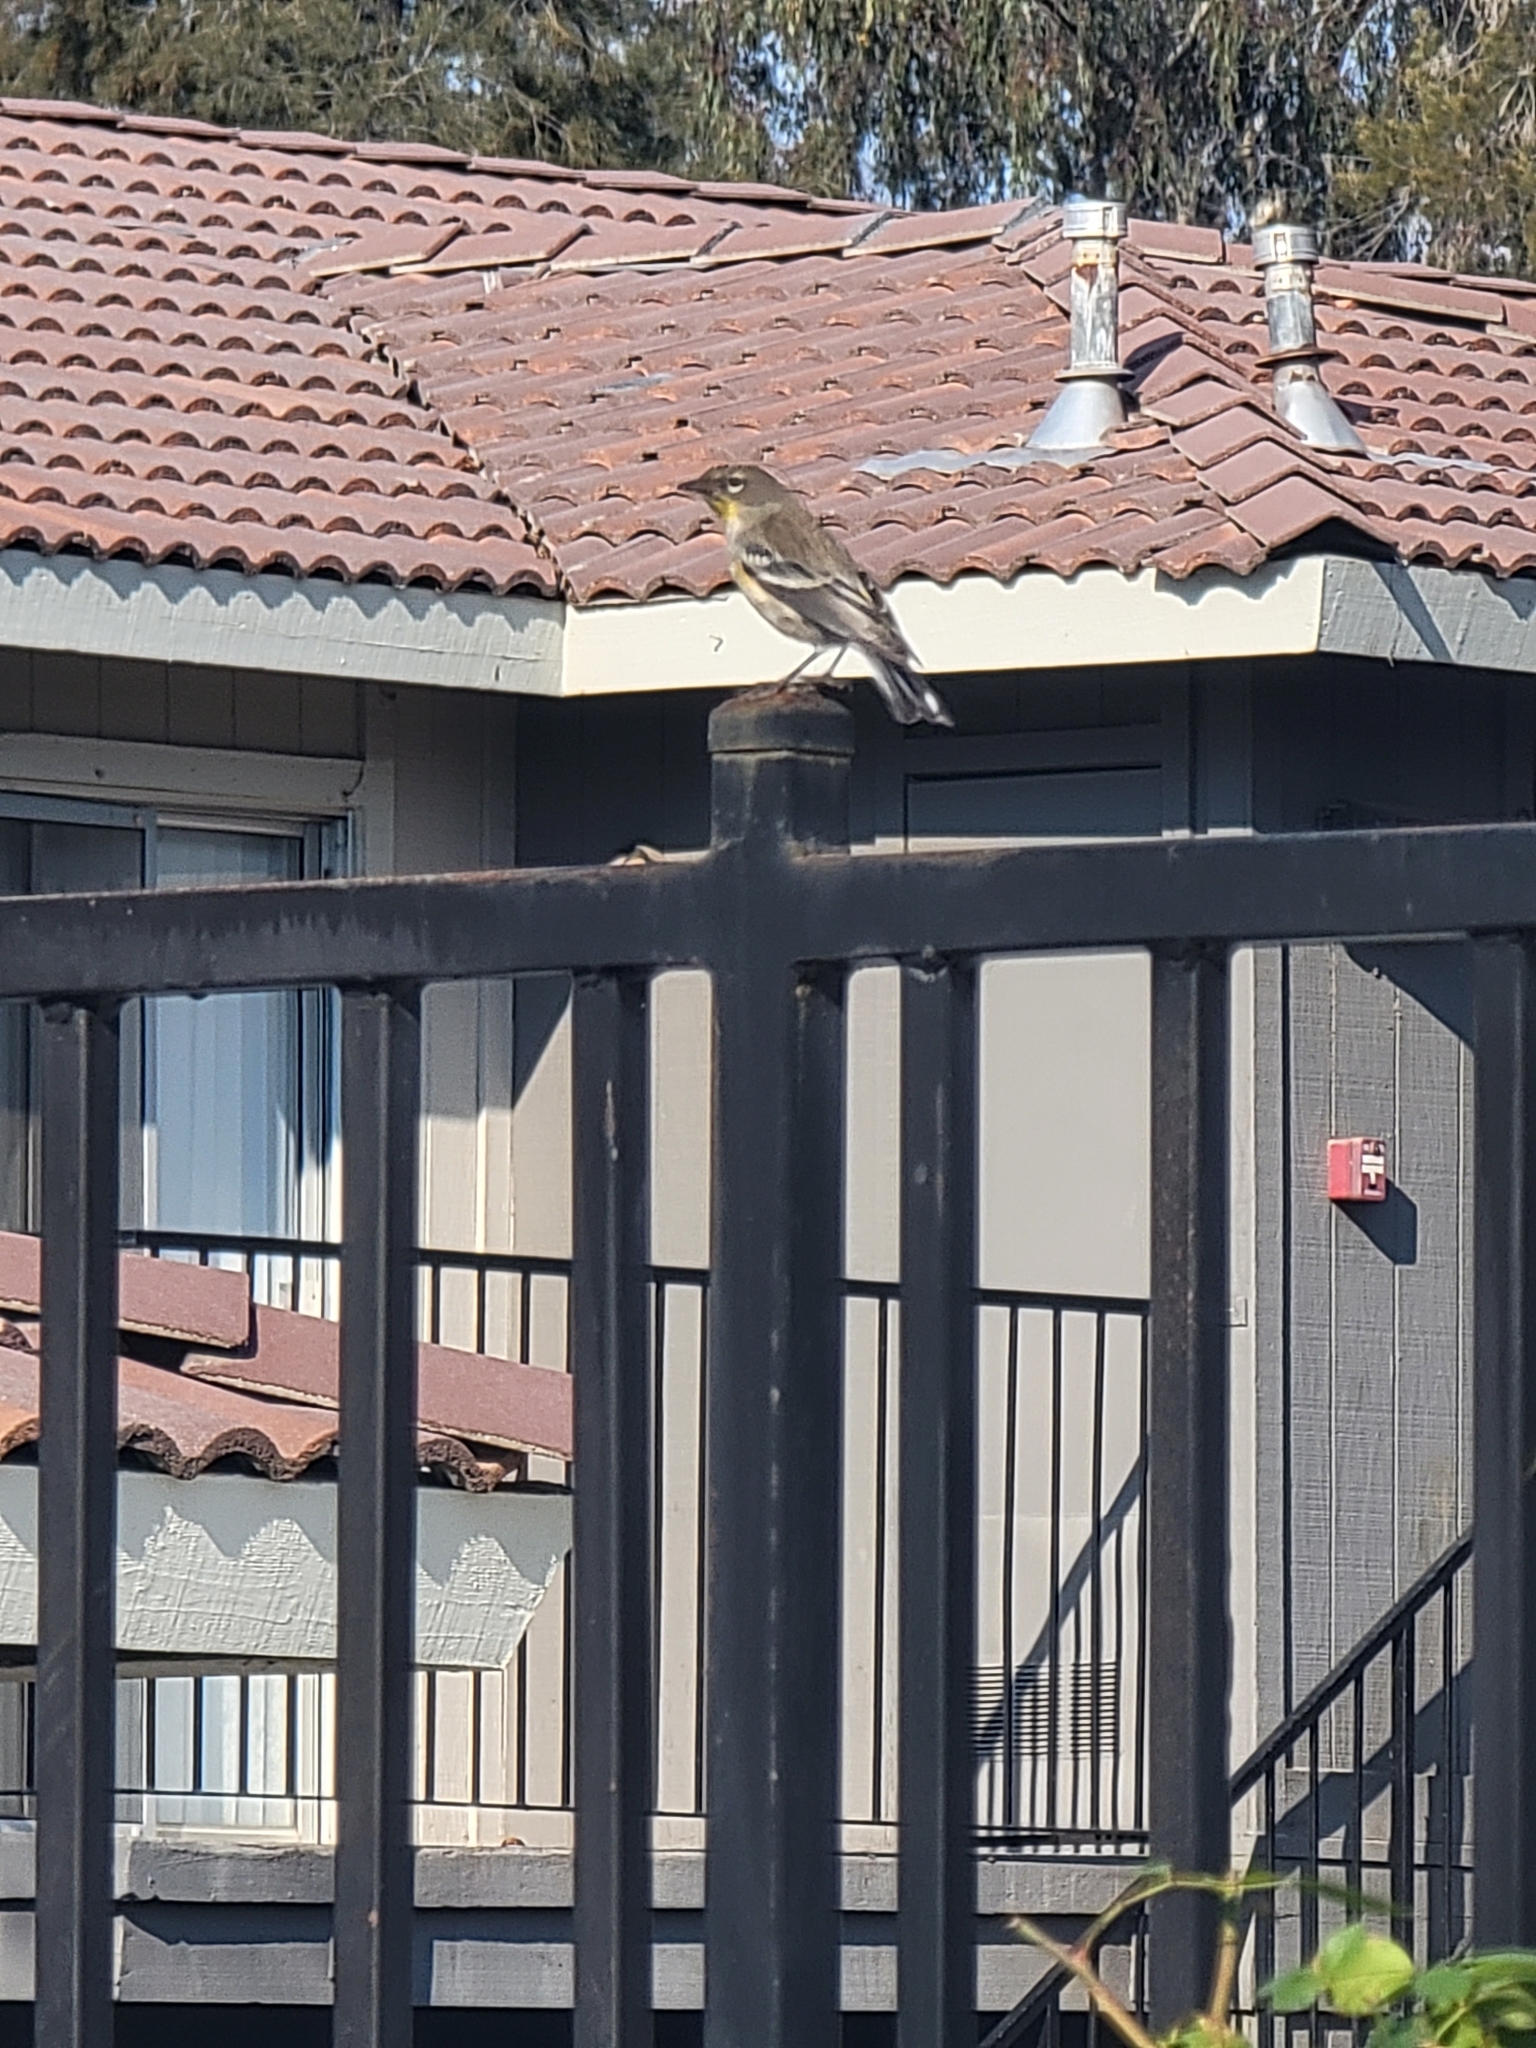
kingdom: Animalia
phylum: Chordata
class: Aves
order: Passeriformes
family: Parulidae
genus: Setophaga
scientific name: Setophaga coronata
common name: Myrtle warbler
